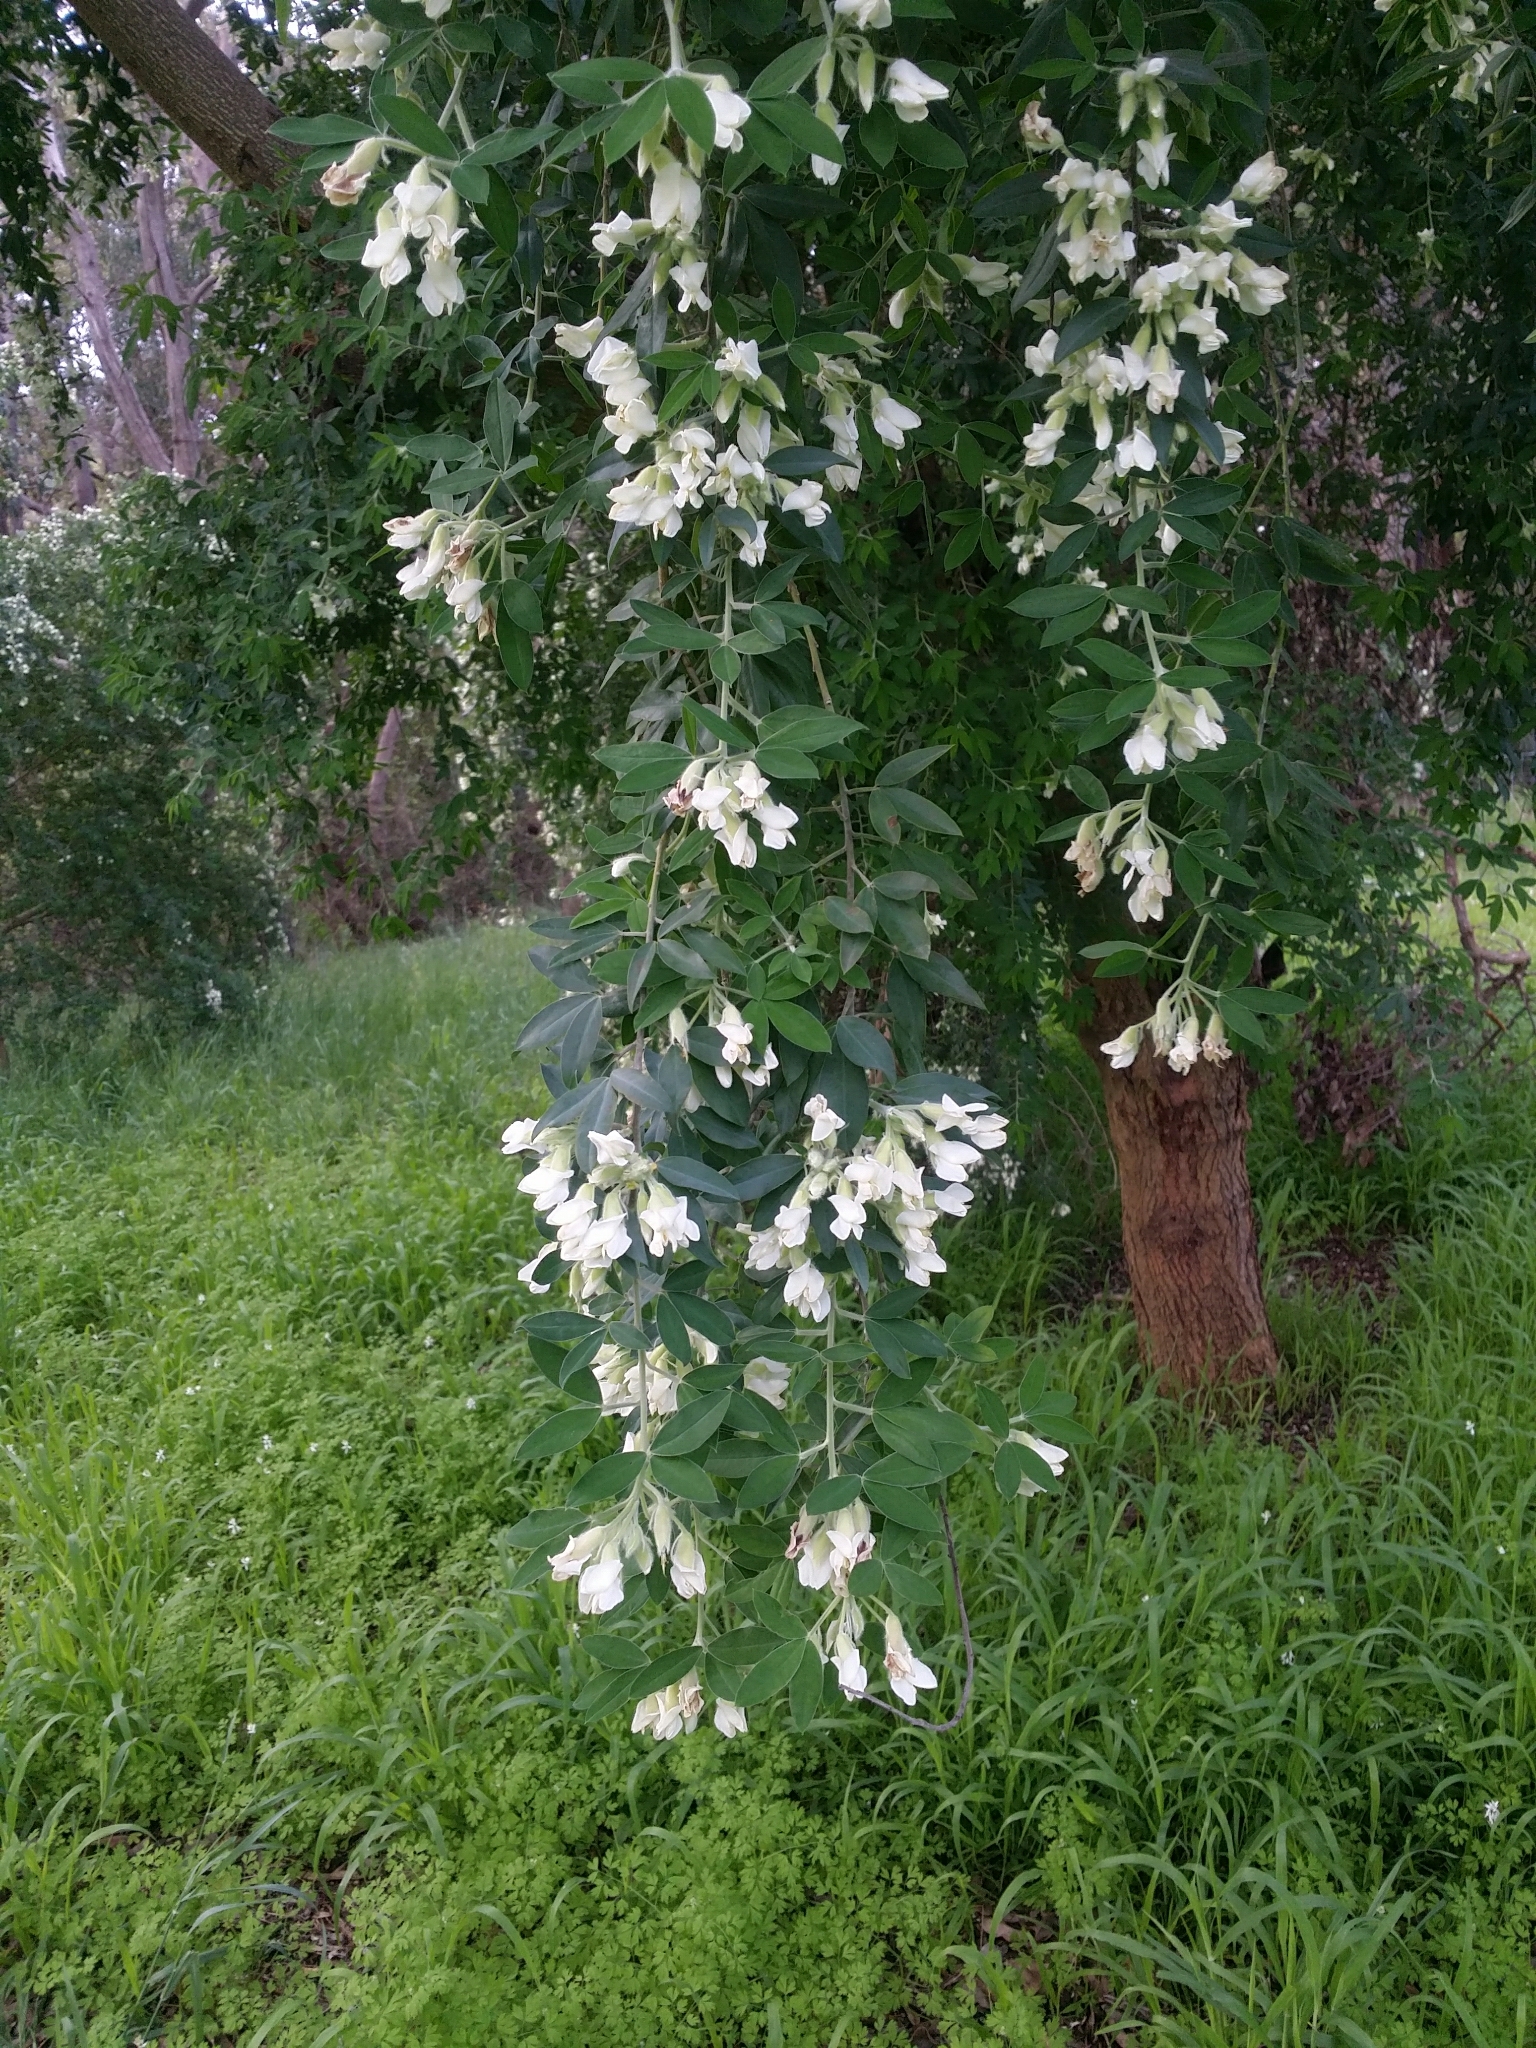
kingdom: Plantae
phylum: Tracheophyta
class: Magnoliopsida
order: Fabales
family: Fabaceae
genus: Chamaecytisus
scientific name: Chamaecytisus prolifer
